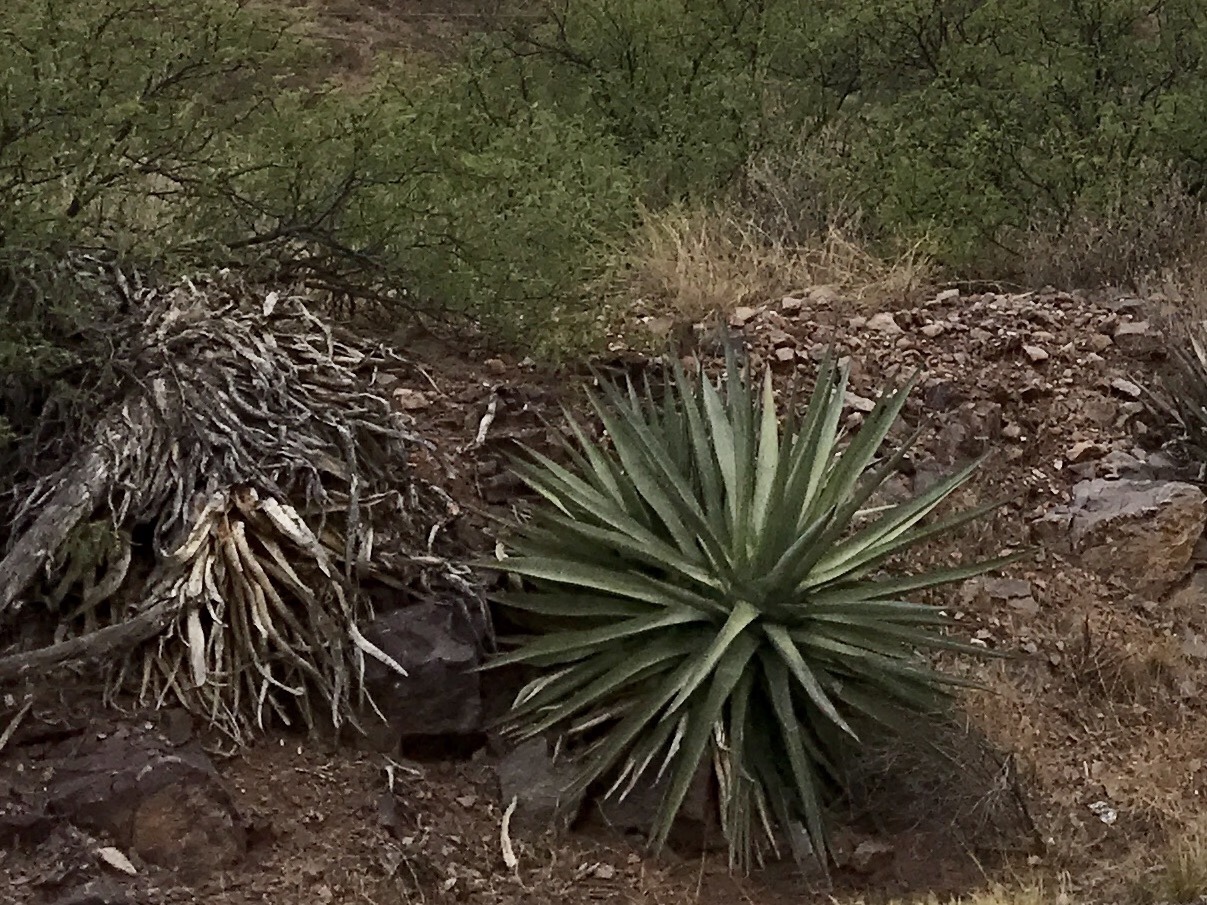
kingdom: Plantae
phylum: Tracheophyta
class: Liliopsida
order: Asparagales
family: Asparagaceae
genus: Agave
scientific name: Agave palmeri
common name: Palmer agave
